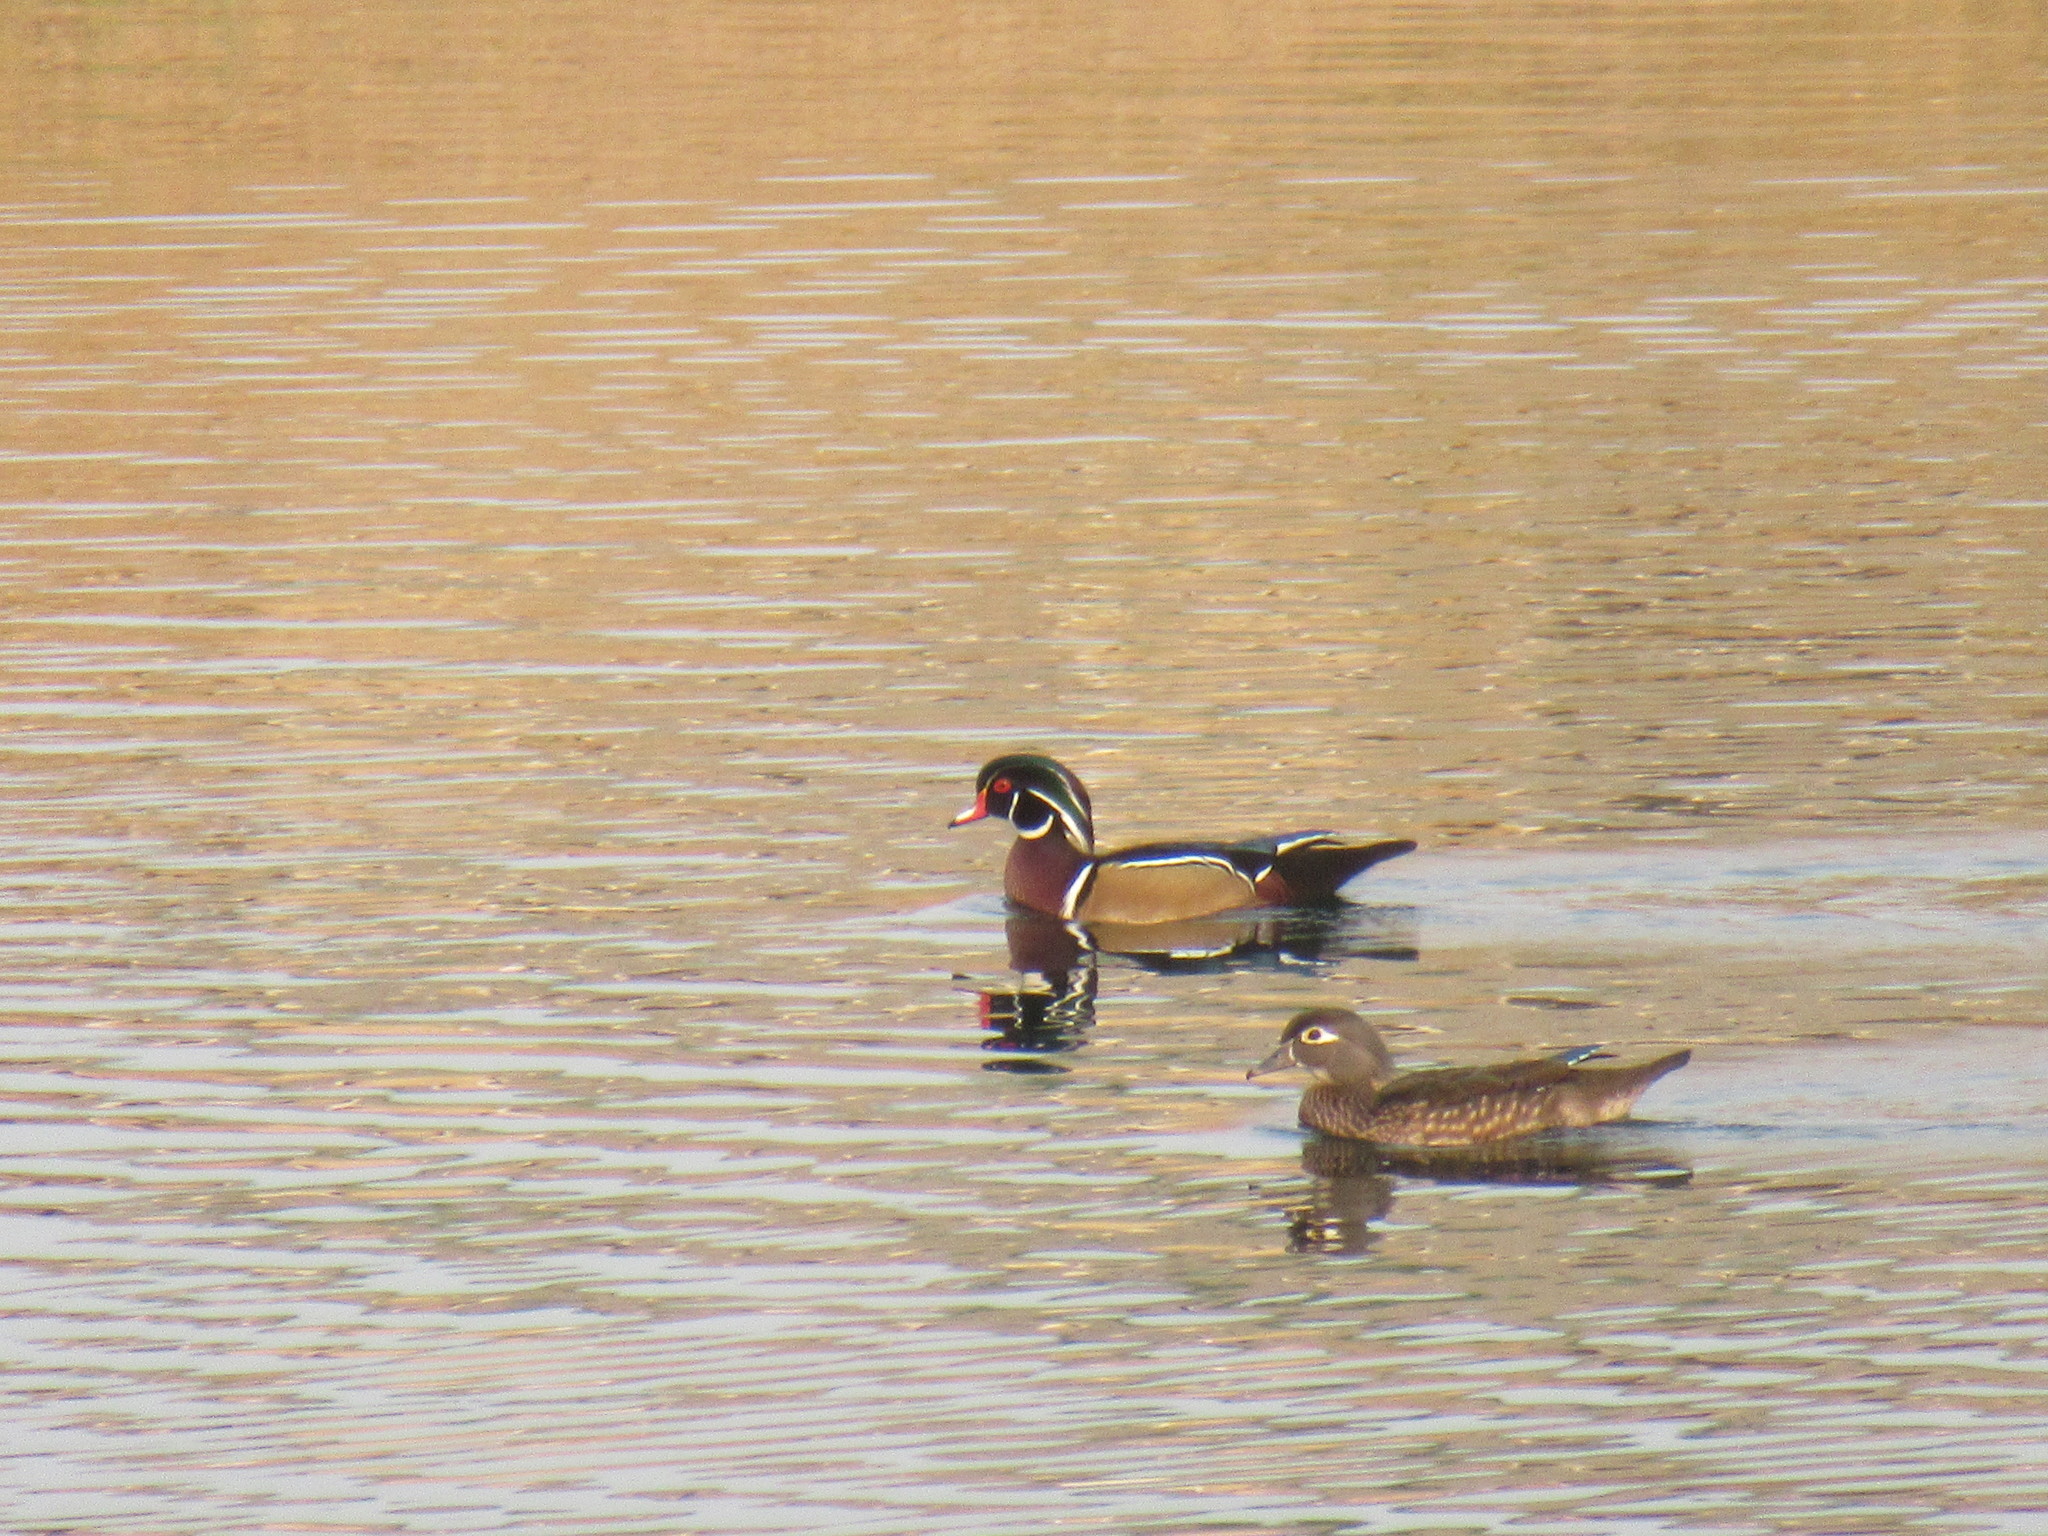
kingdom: Animalia
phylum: Chordata
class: Aves
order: Anseriformes
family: Anatidae
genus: Aix
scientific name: Aix sponsa
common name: Wood duck
